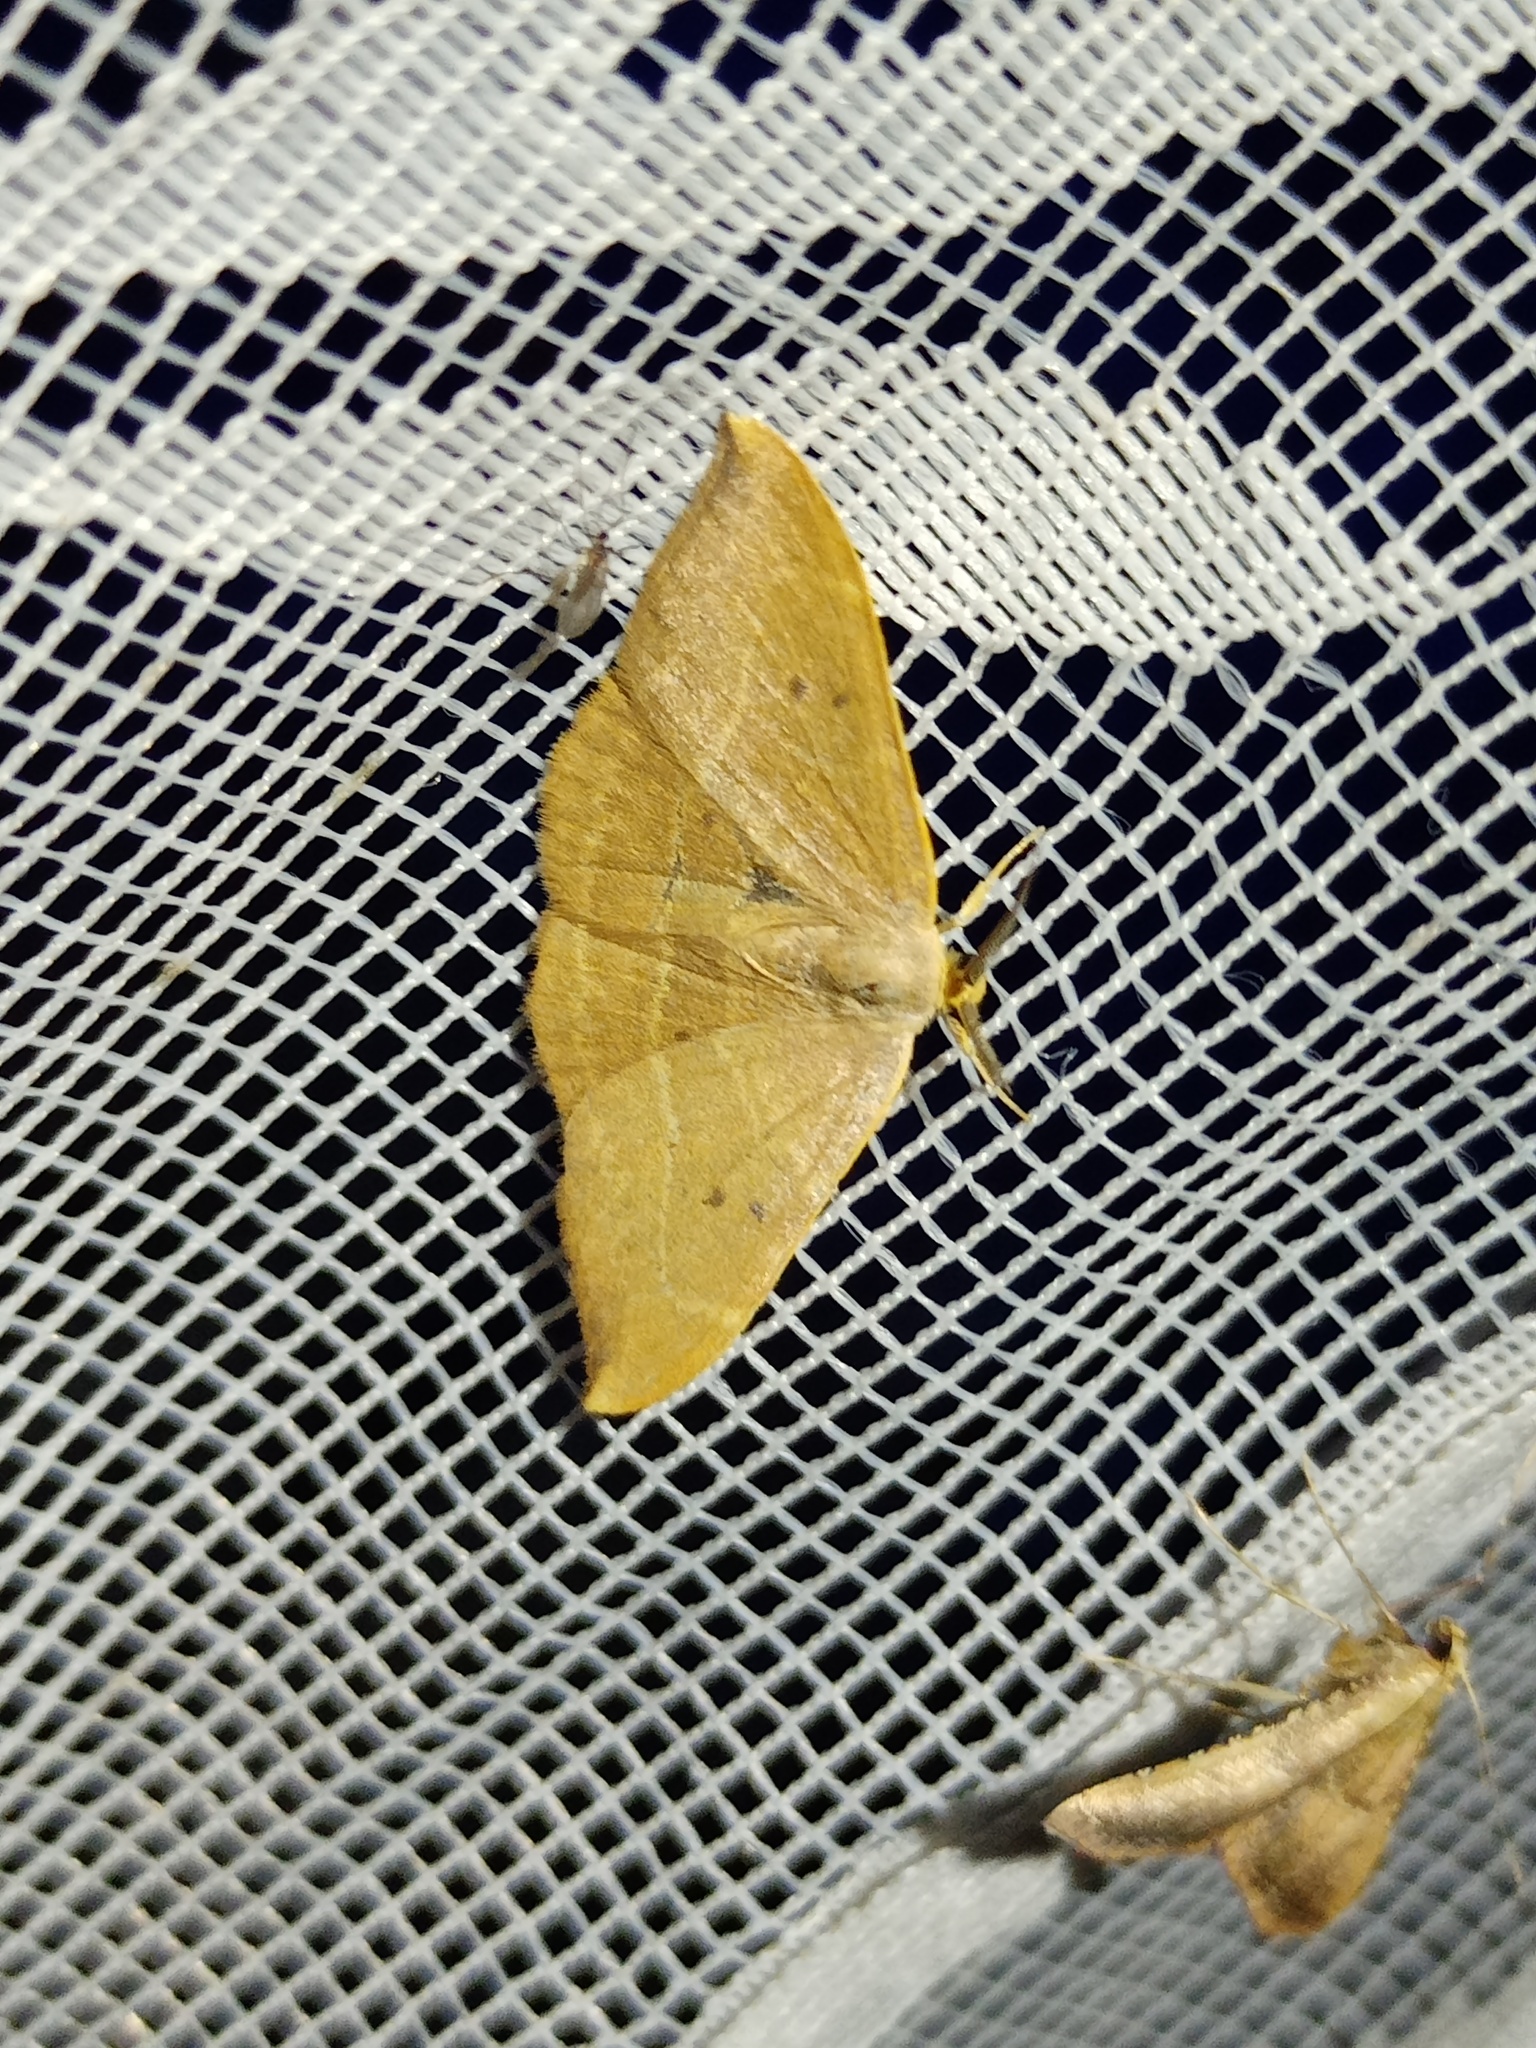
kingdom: Animalia
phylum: Arthropoda
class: Insecta
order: Lepidoptera
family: Drepanidae
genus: Watsonalla
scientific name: Watsonalla binaria
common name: Oak hook-tip
